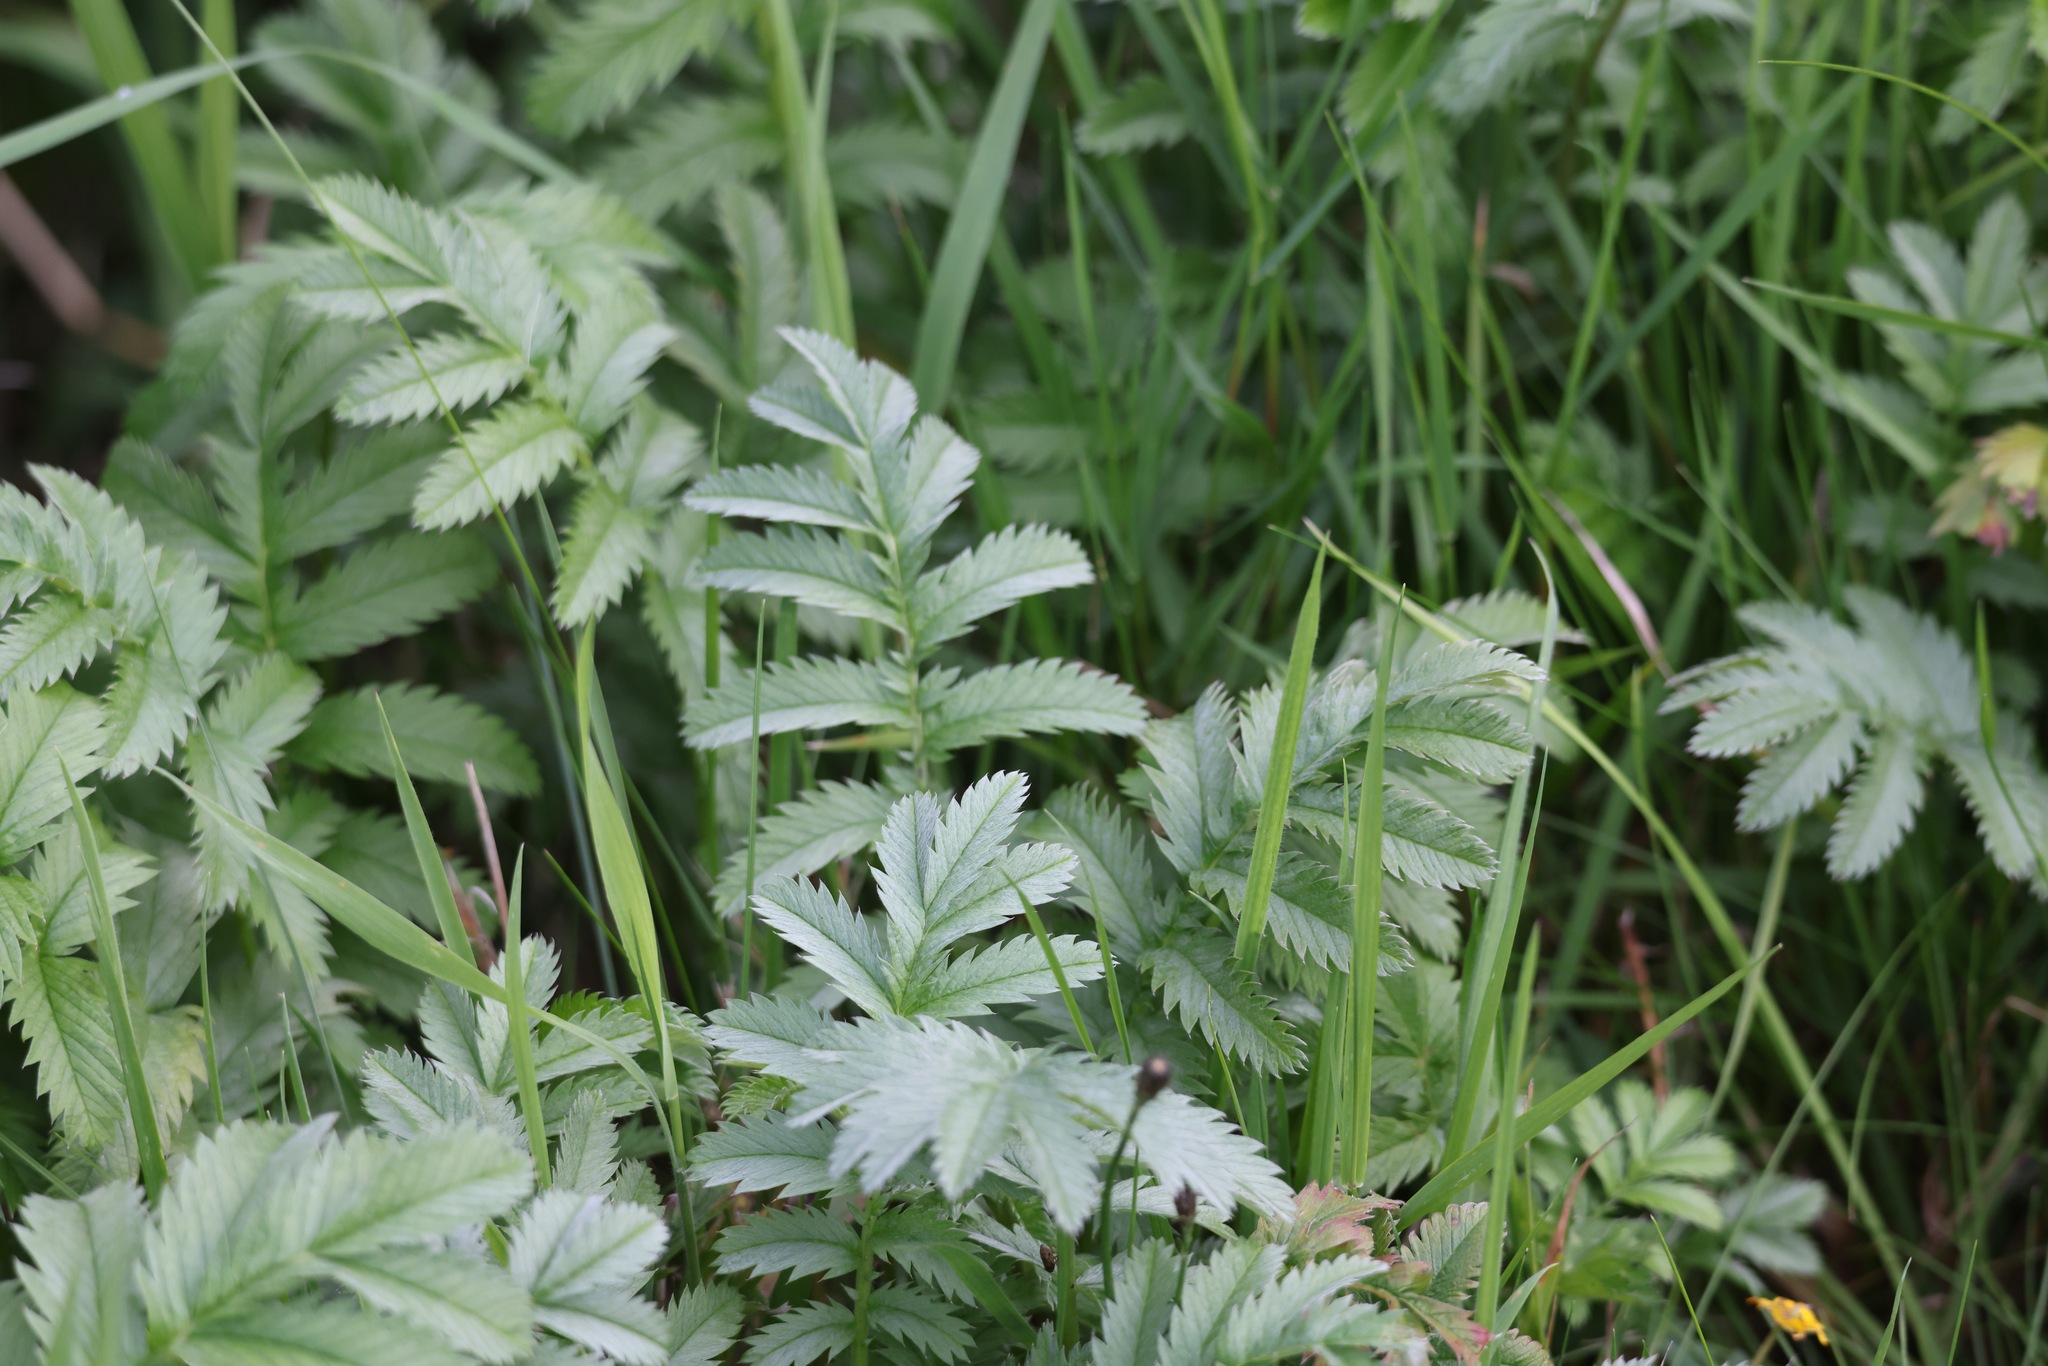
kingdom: Plantae
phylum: Tracheophyta
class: Magnoliopsida
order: Rosales
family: Rosaceae
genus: Argentina
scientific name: Argentina anserina
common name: Common silverweed
